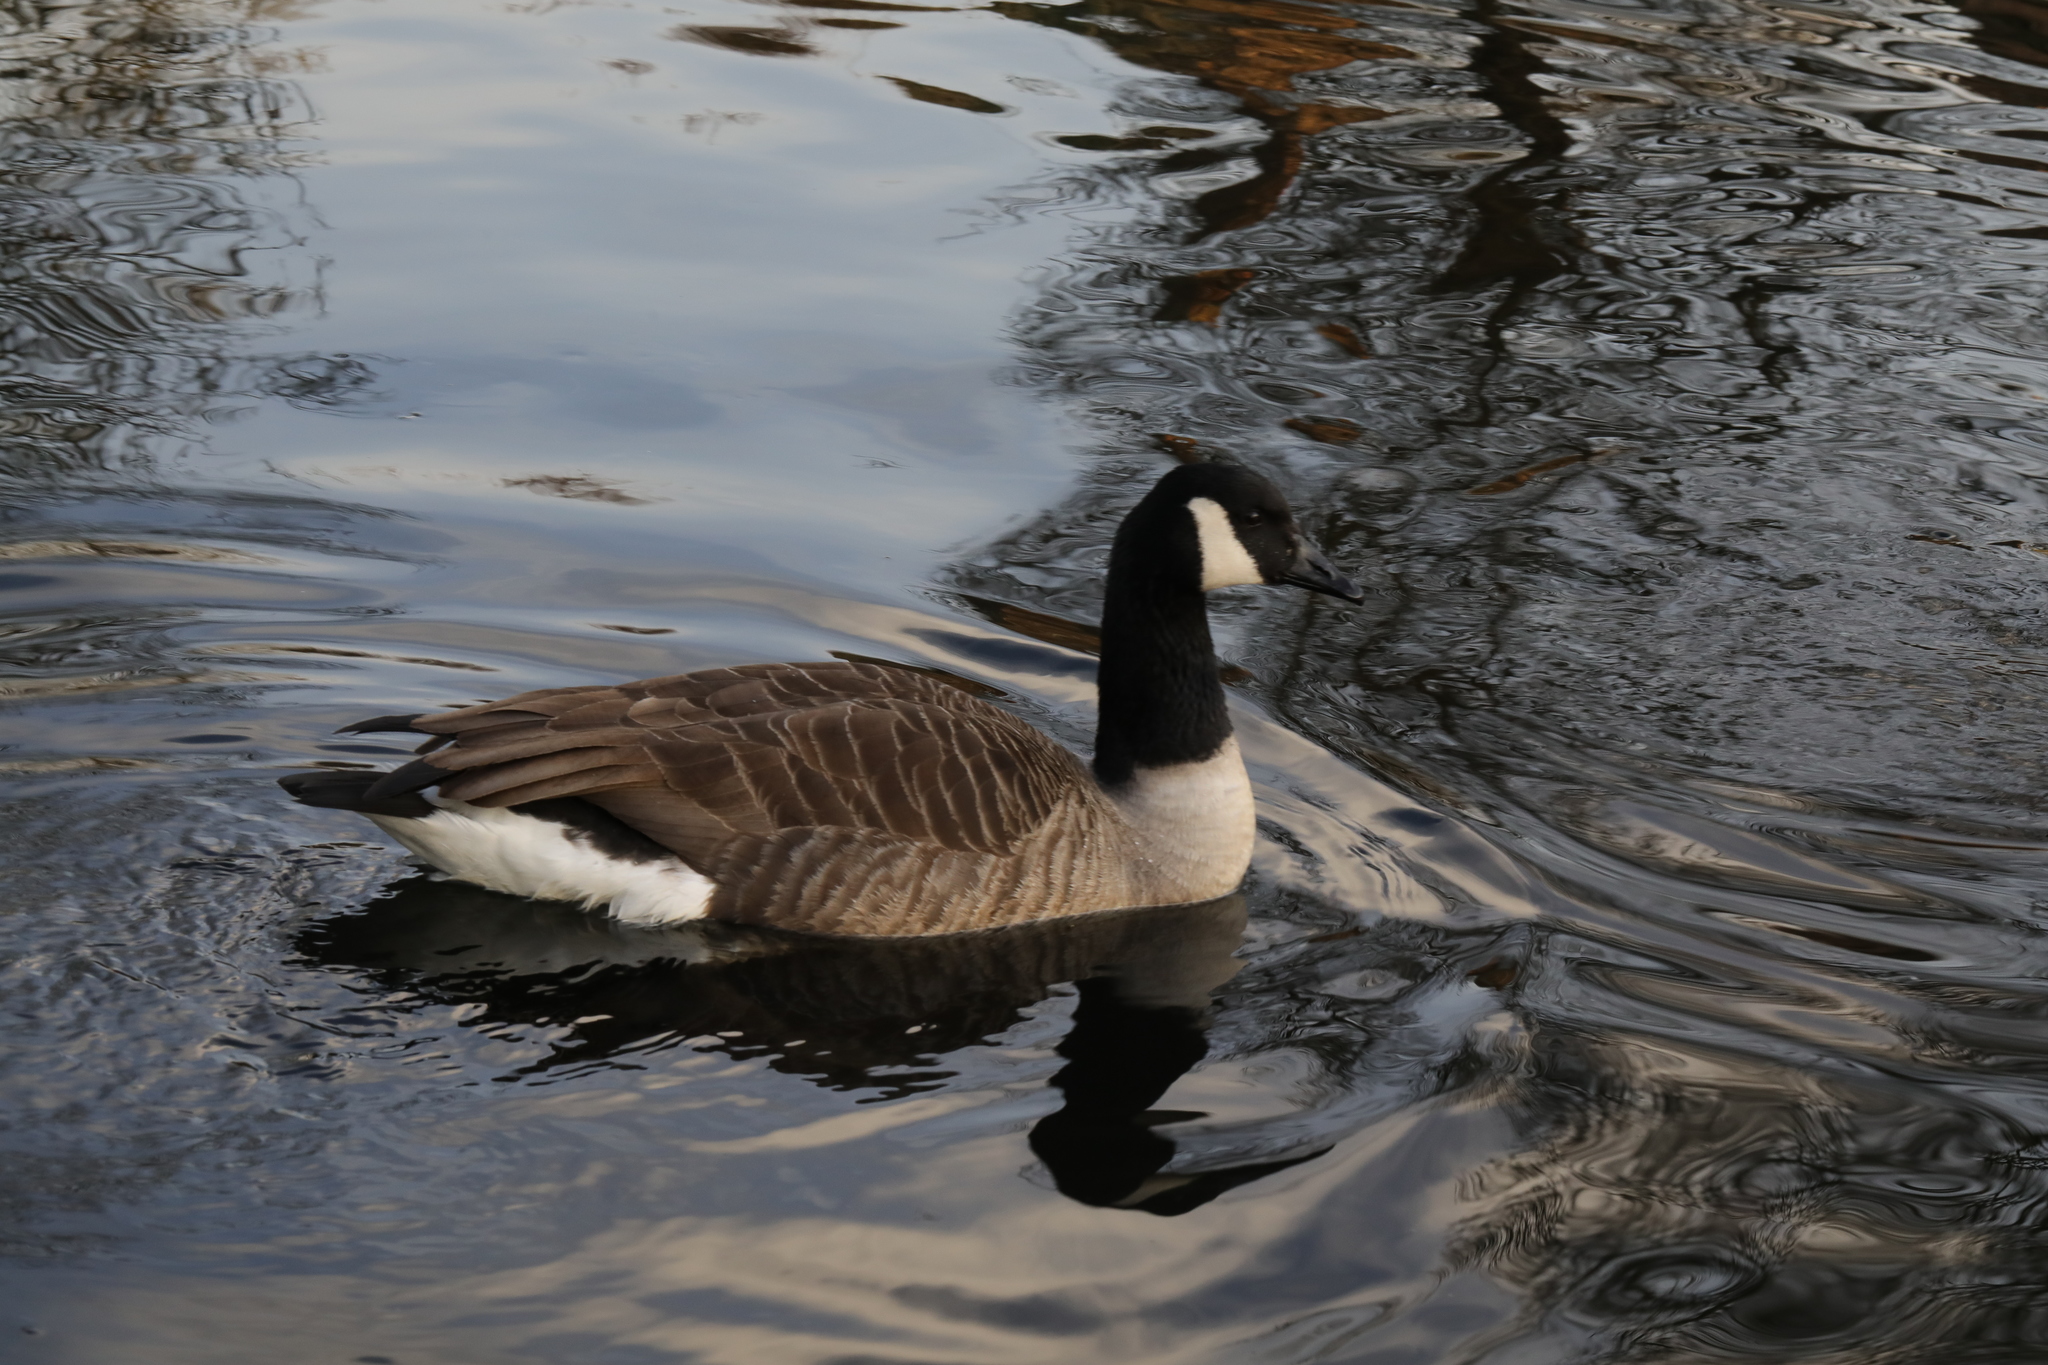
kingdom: Animalia
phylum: Chordata
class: Aves
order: Anseriformes
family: Anatidae
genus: Branta
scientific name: Branta canadensis
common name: Canada goose
